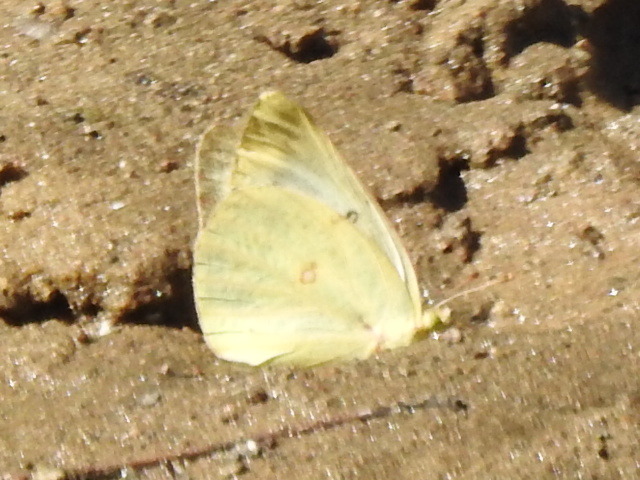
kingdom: Animalia
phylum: Arthropoda
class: Insecta
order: Lepidoptera
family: Pieridae
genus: Colias
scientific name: Colias eurytheme
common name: Alfalfa butterfly
